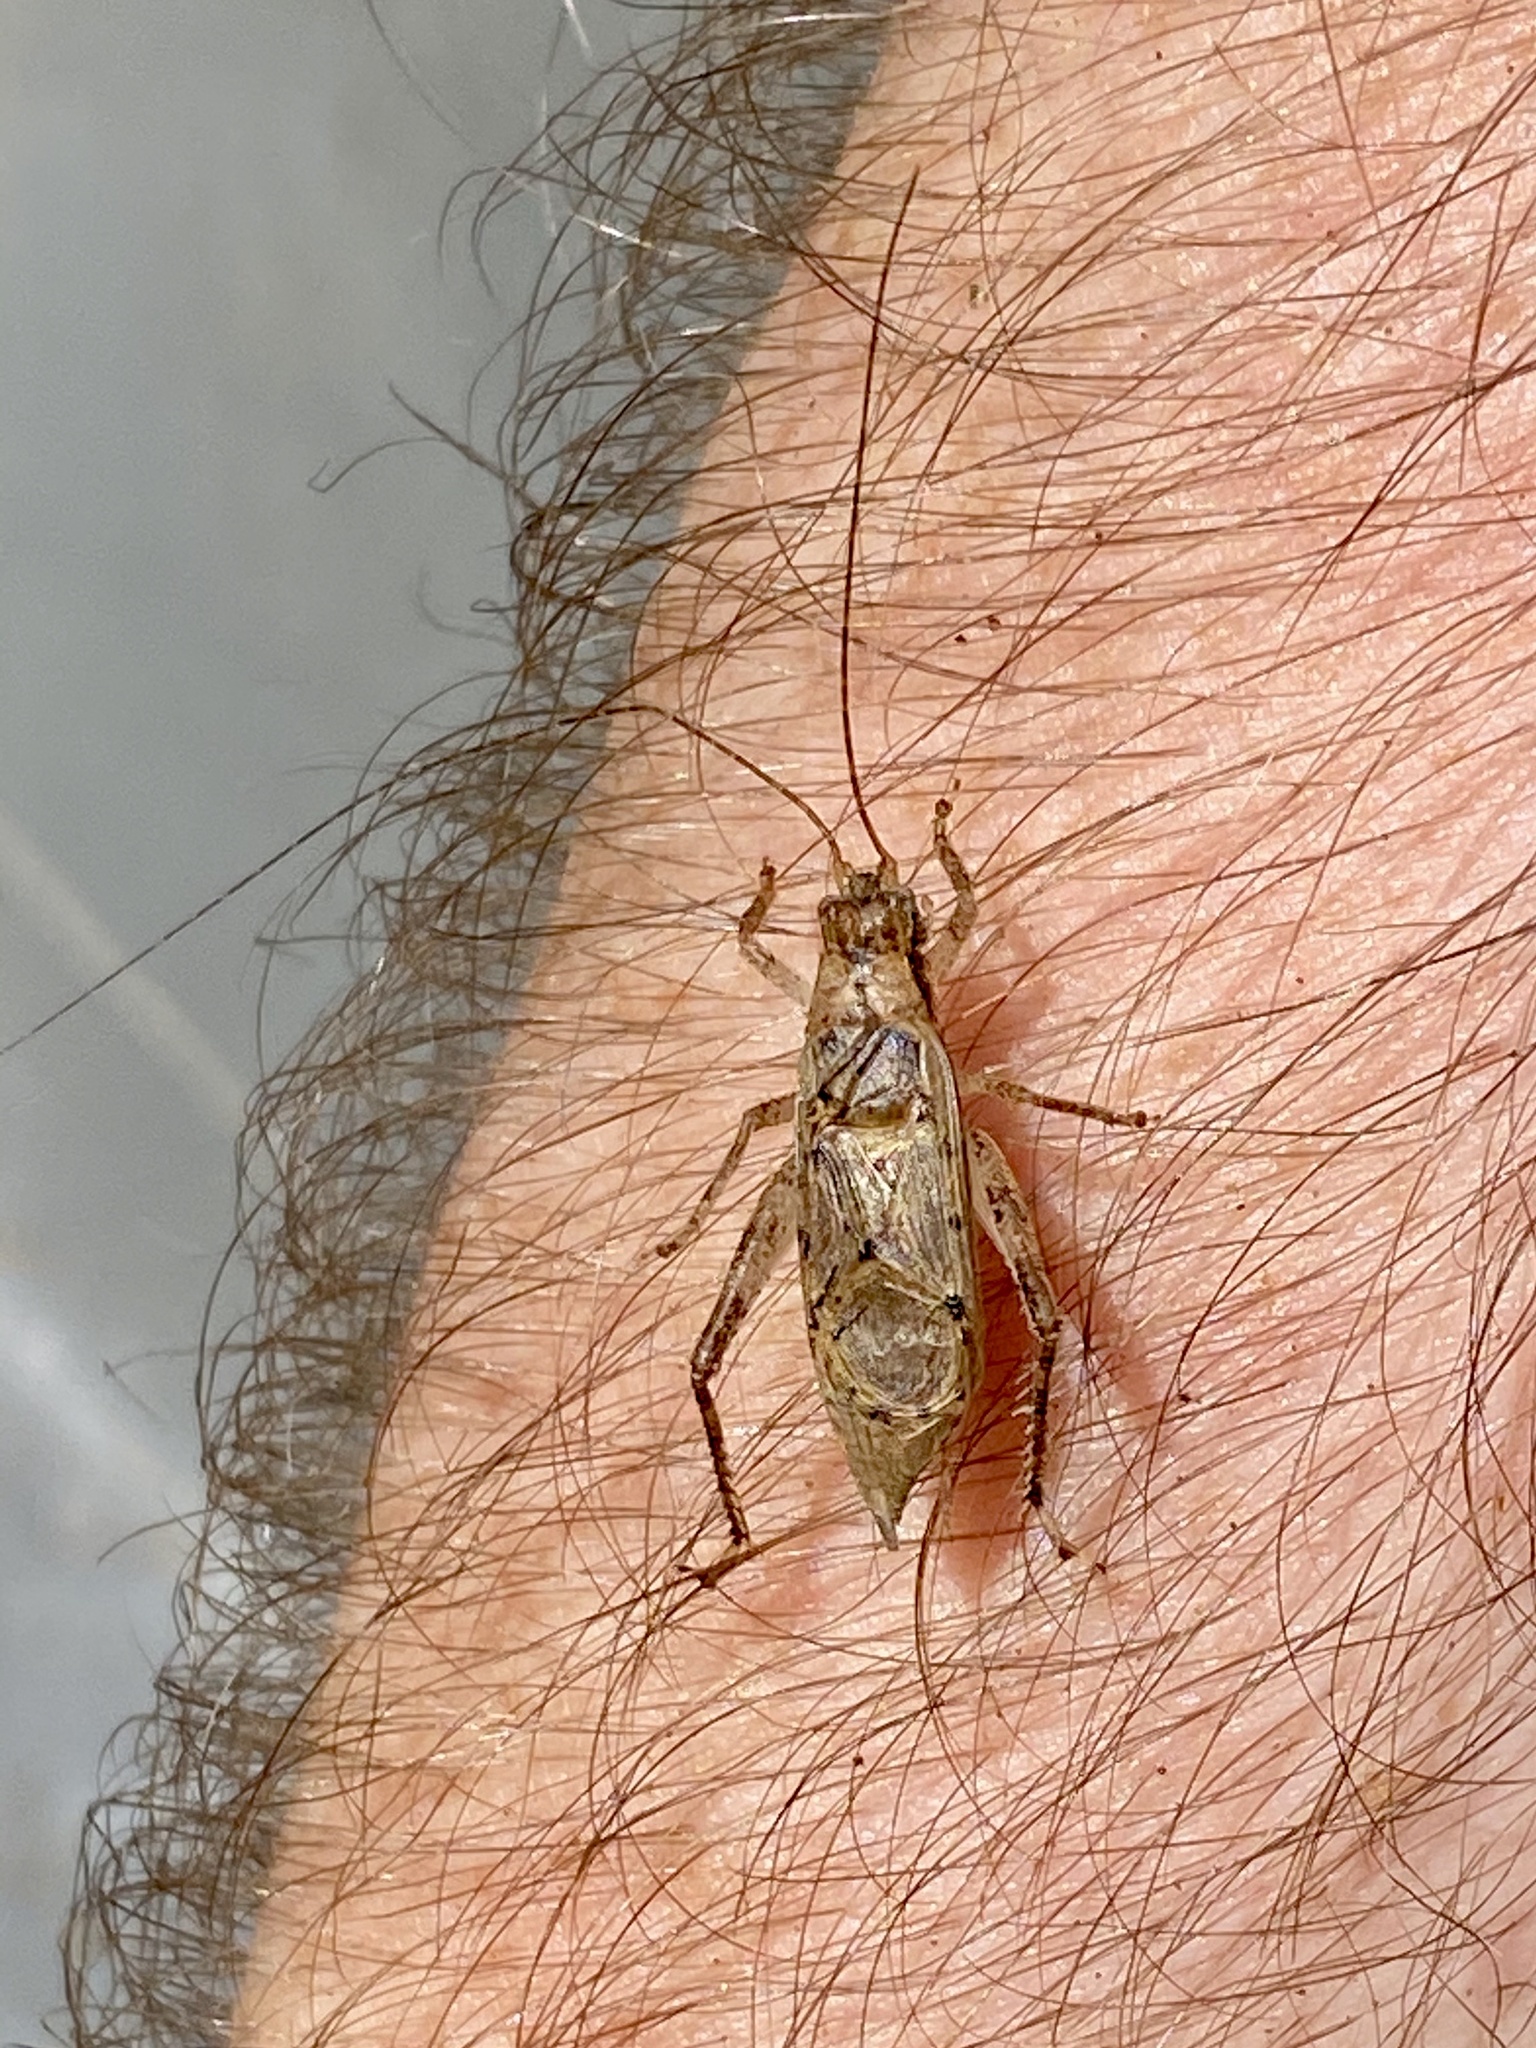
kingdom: Animalia
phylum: Arthropoda
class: Insecta
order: Orthoptera
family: Gryllidae
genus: Hapithus
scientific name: Hapithus saltator
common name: Jumping bush cricket
